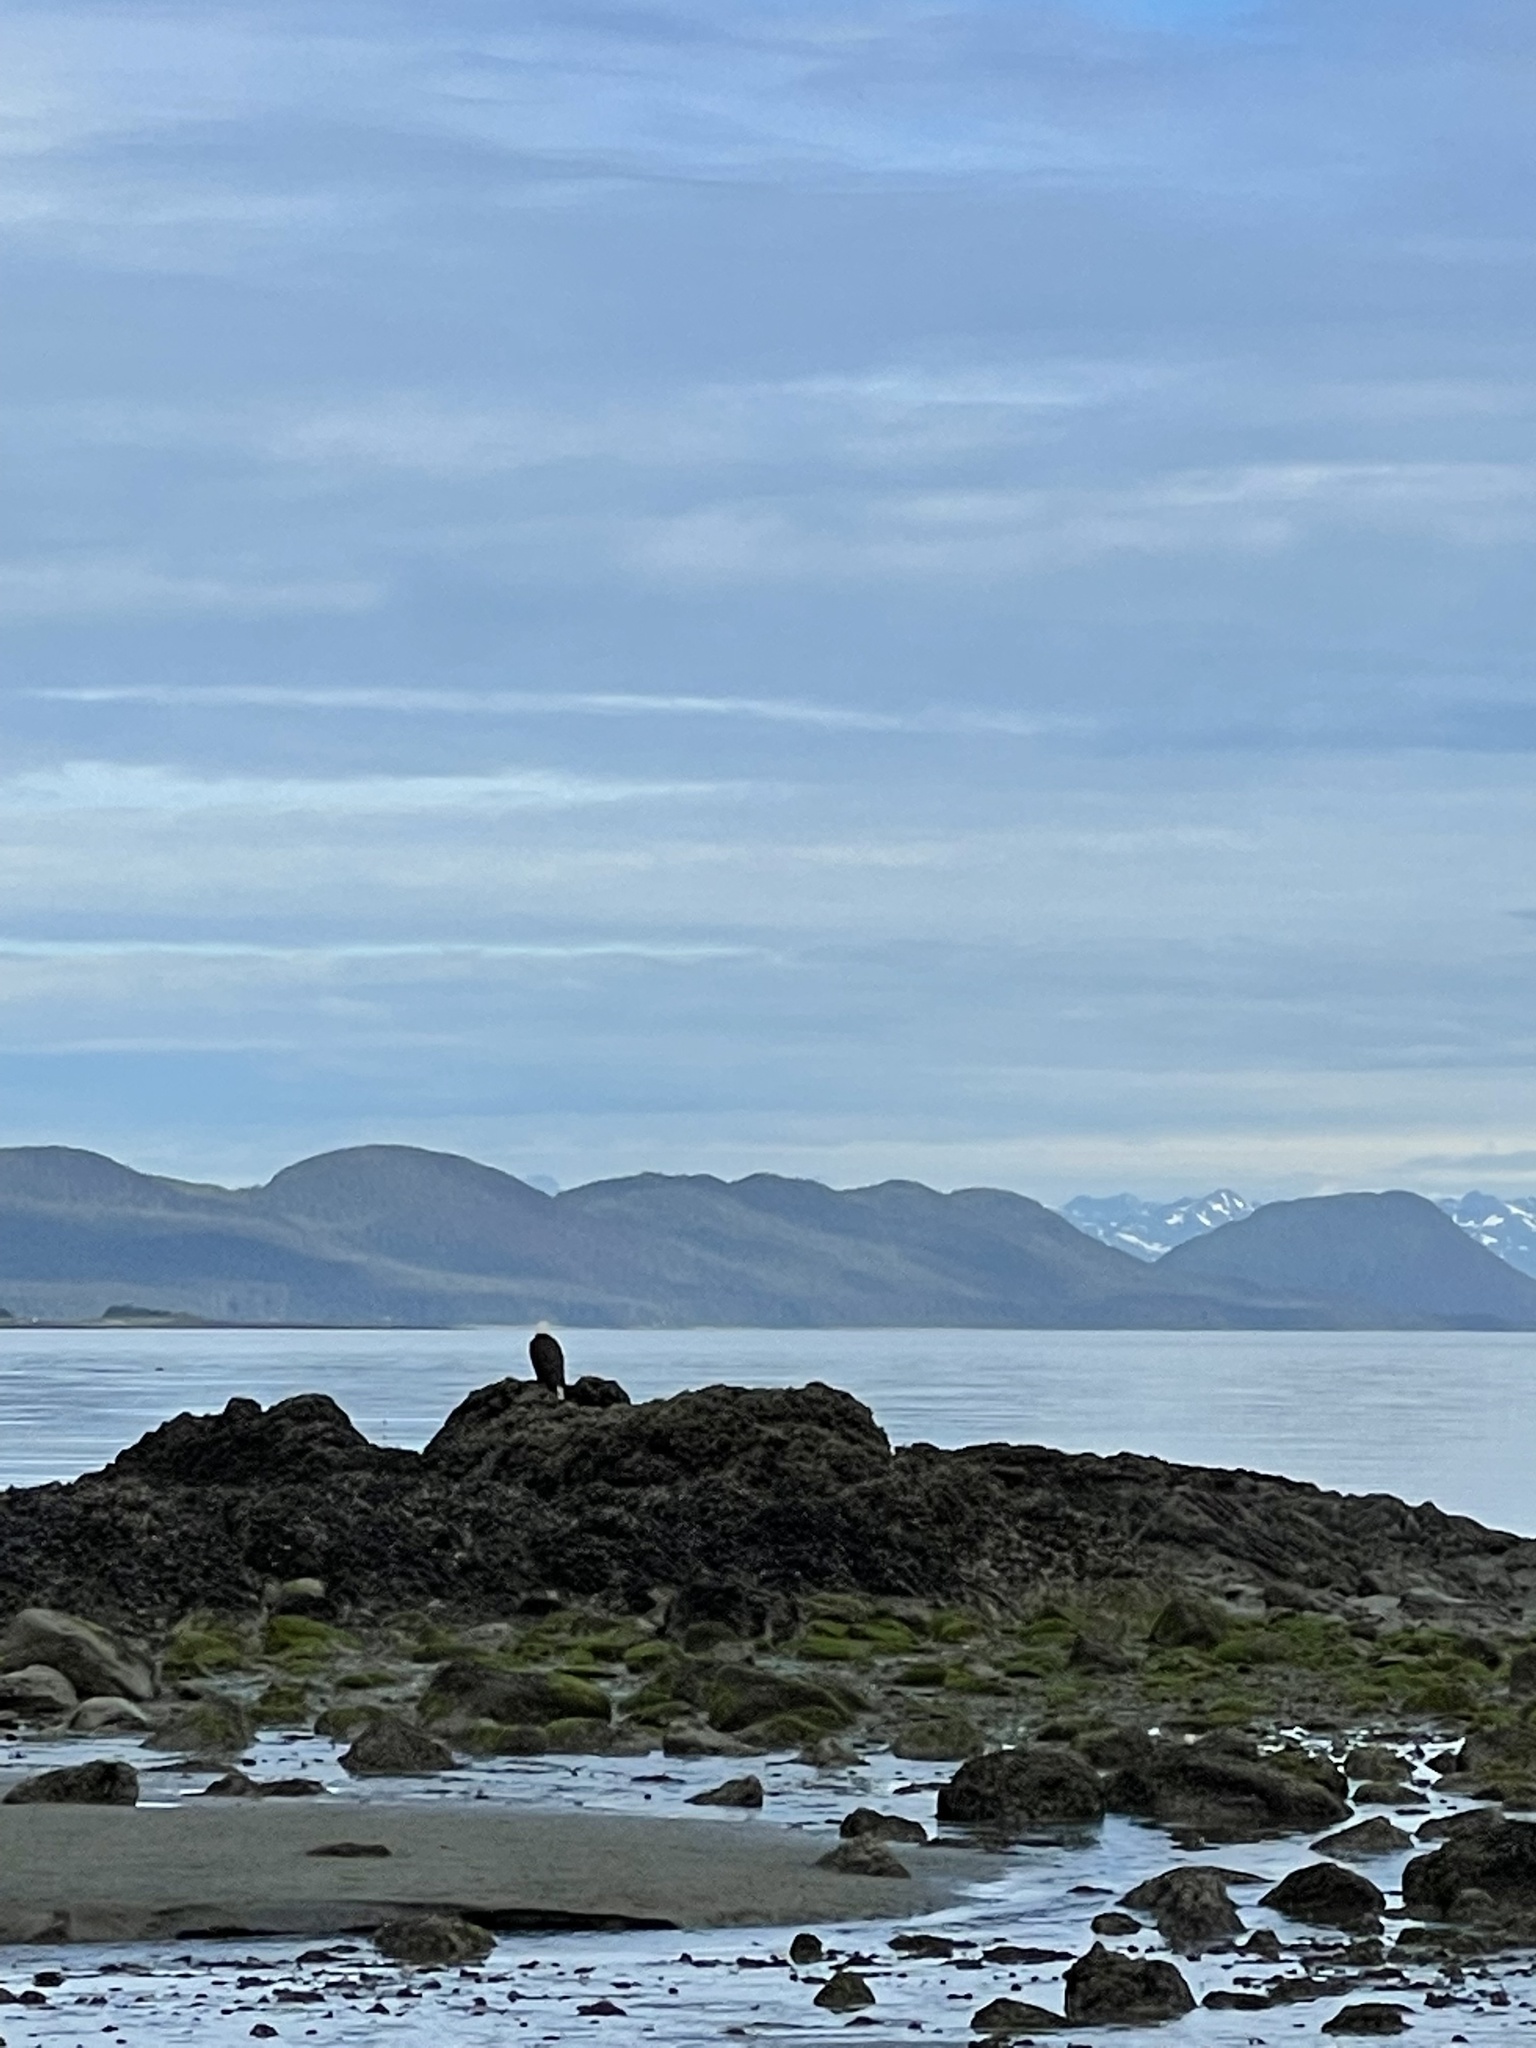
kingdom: Animalia
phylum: Chordata
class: Aves
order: Accipitriformes
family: Accipitridae
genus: Haliaeetus
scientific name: Haliaeetus leucocephalus
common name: Bald eagle
